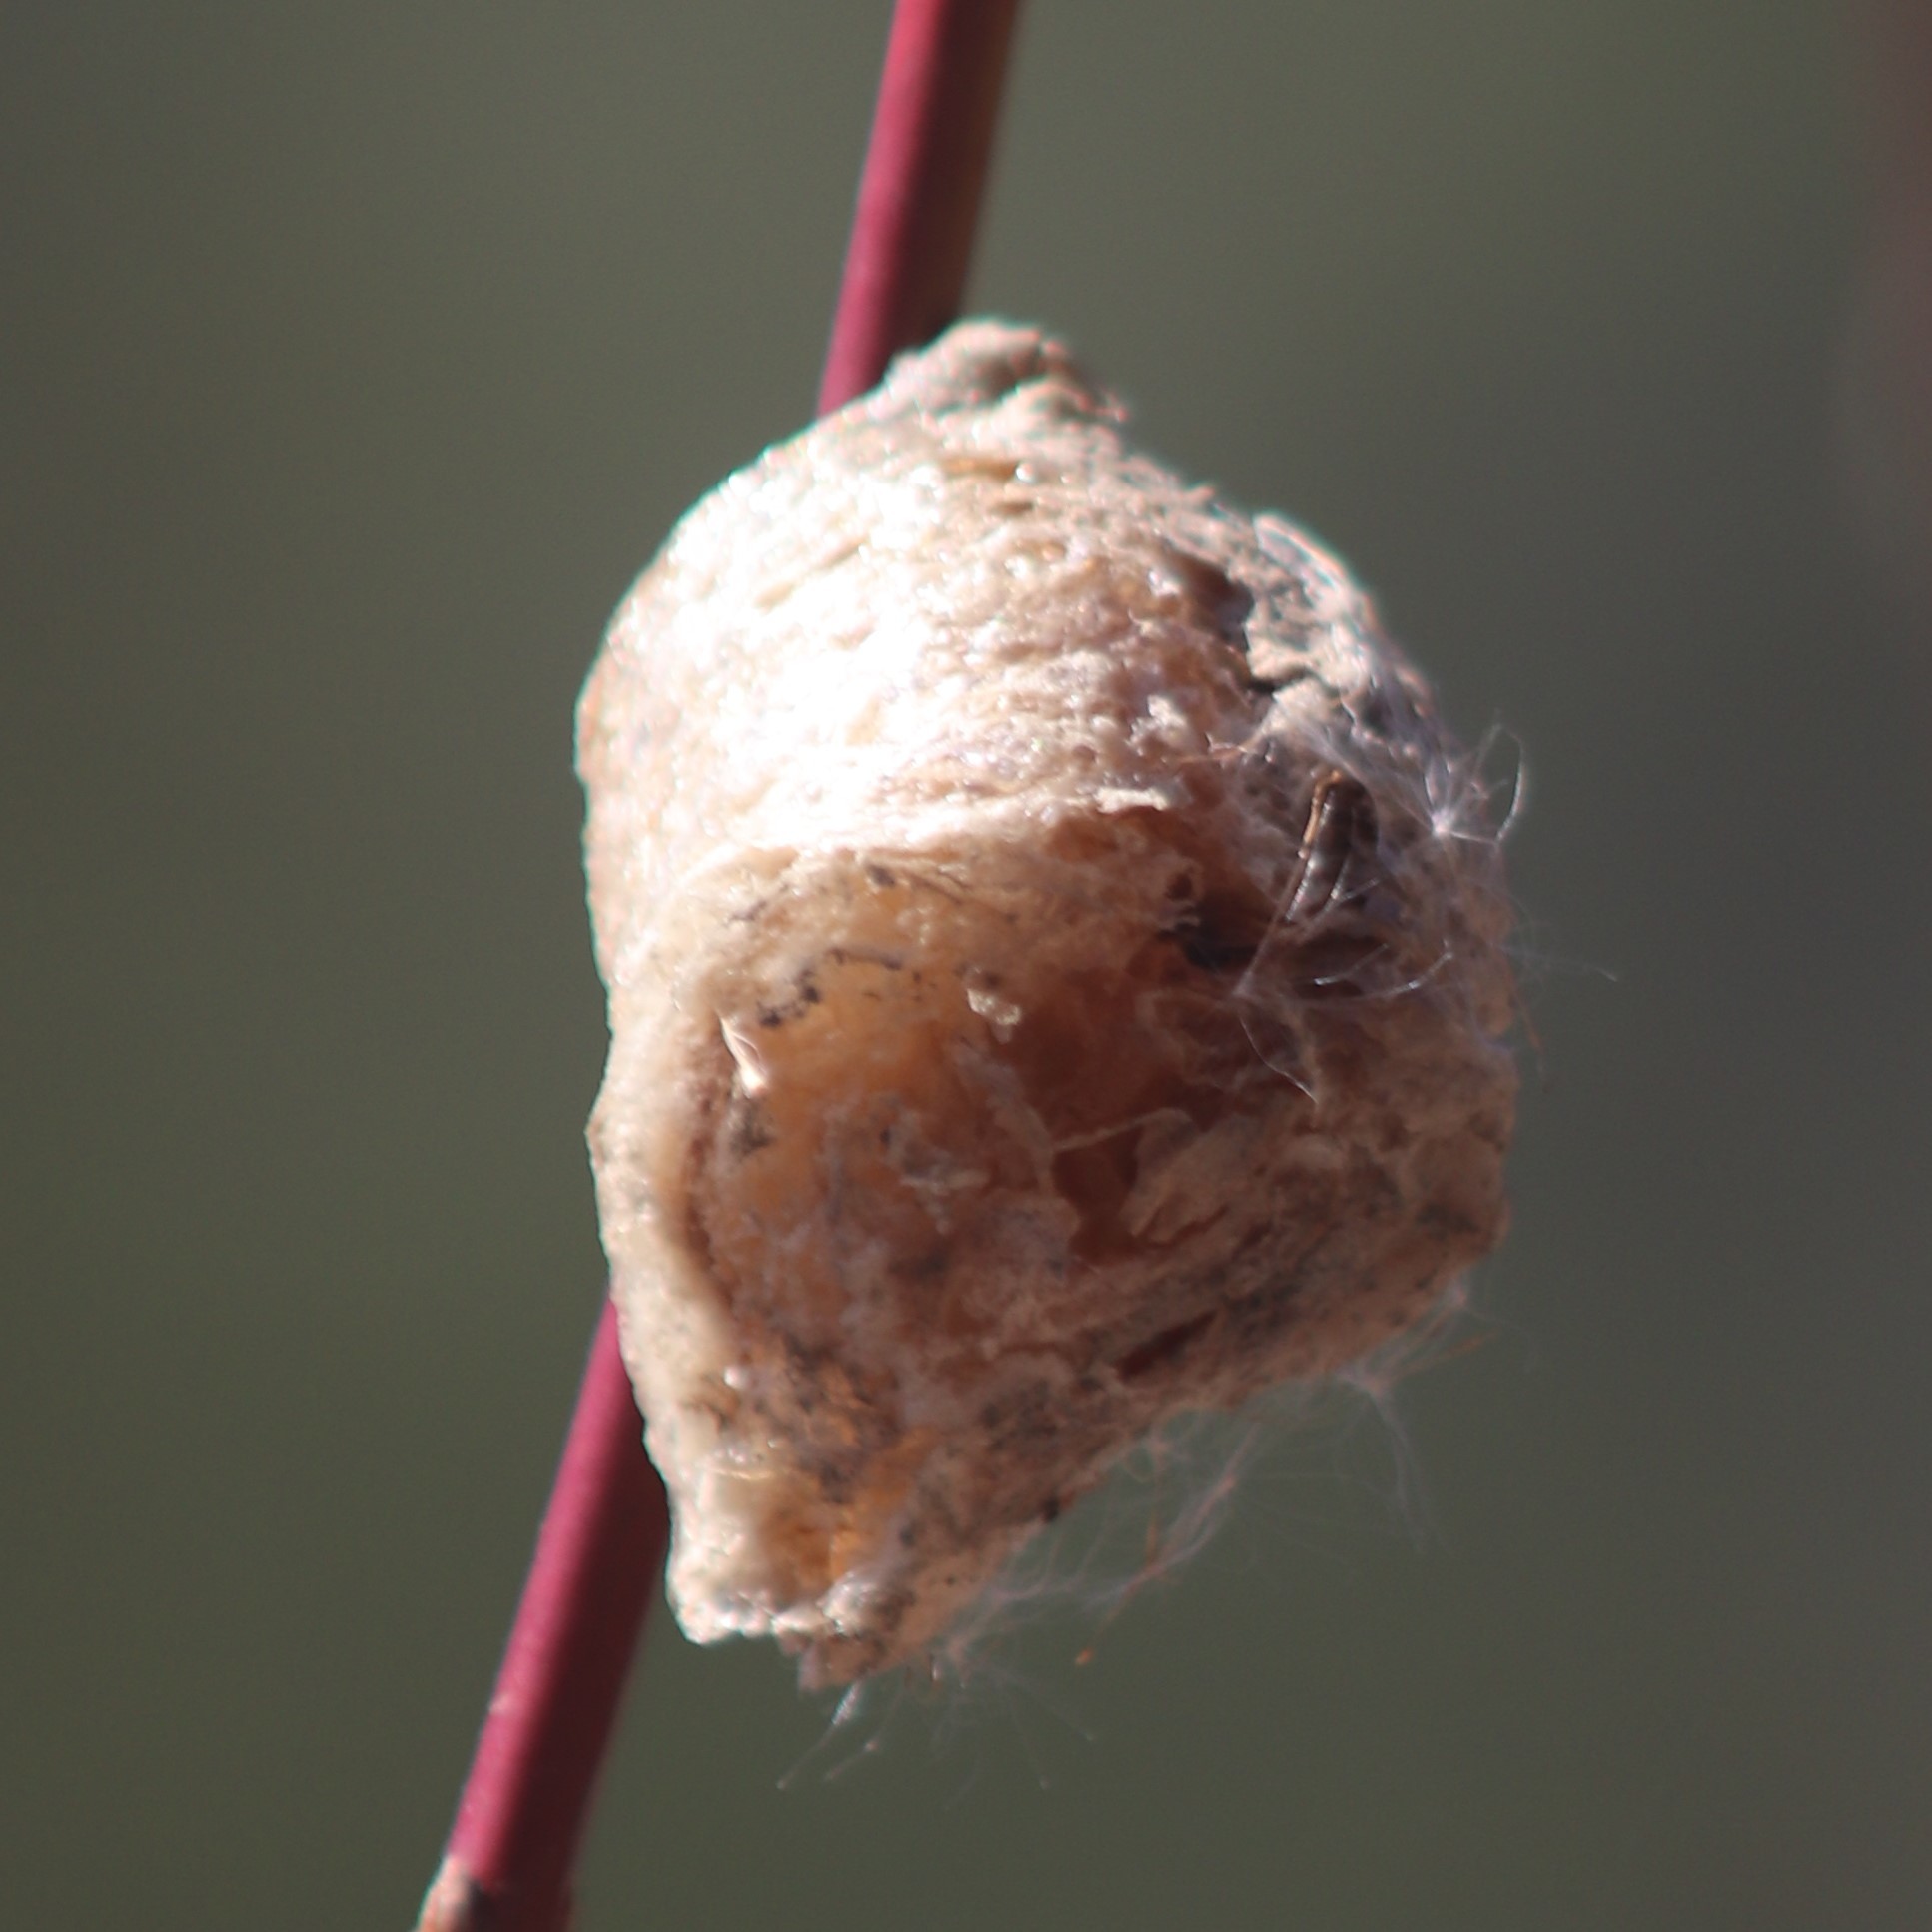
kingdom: Animalia
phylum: Arthropoda
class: Insecta
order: Mantodea
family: Mantidae
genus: Tenodera
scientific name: Tenodera sinensis
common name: Chinese mantis
